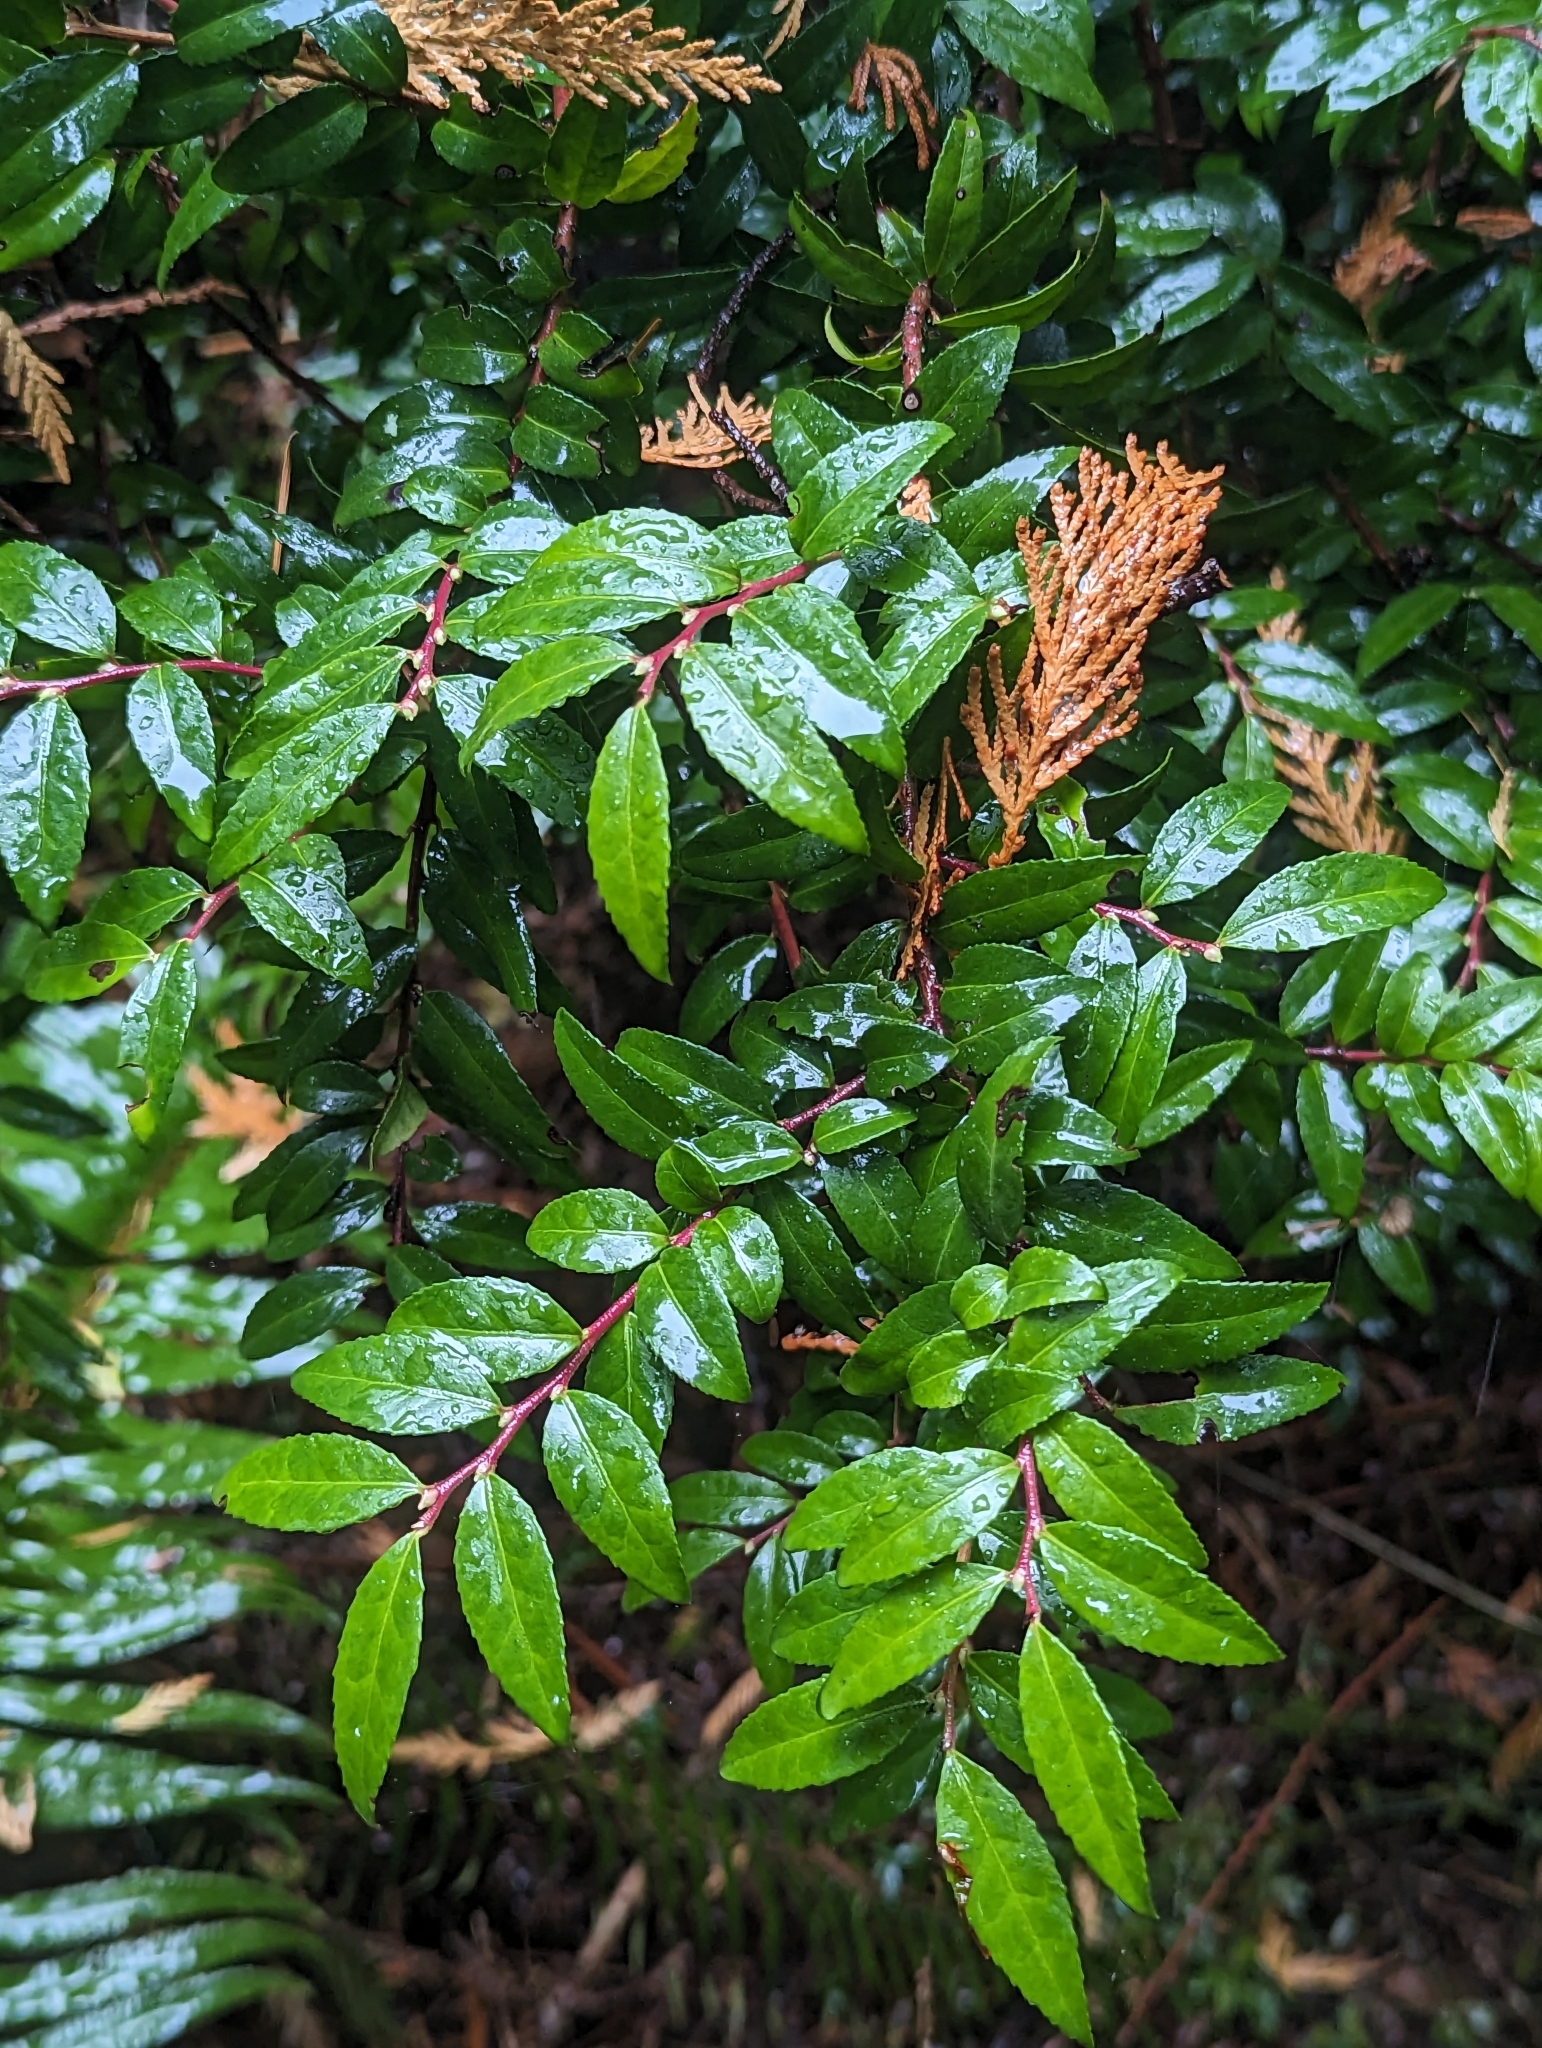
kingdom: Plantae
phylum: Tracheophyta
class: Magnoliopsida
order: Ericales
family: Ericaceae
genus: Vaccinium
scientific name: Vaccinium ovatum
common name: California-huckleberry
